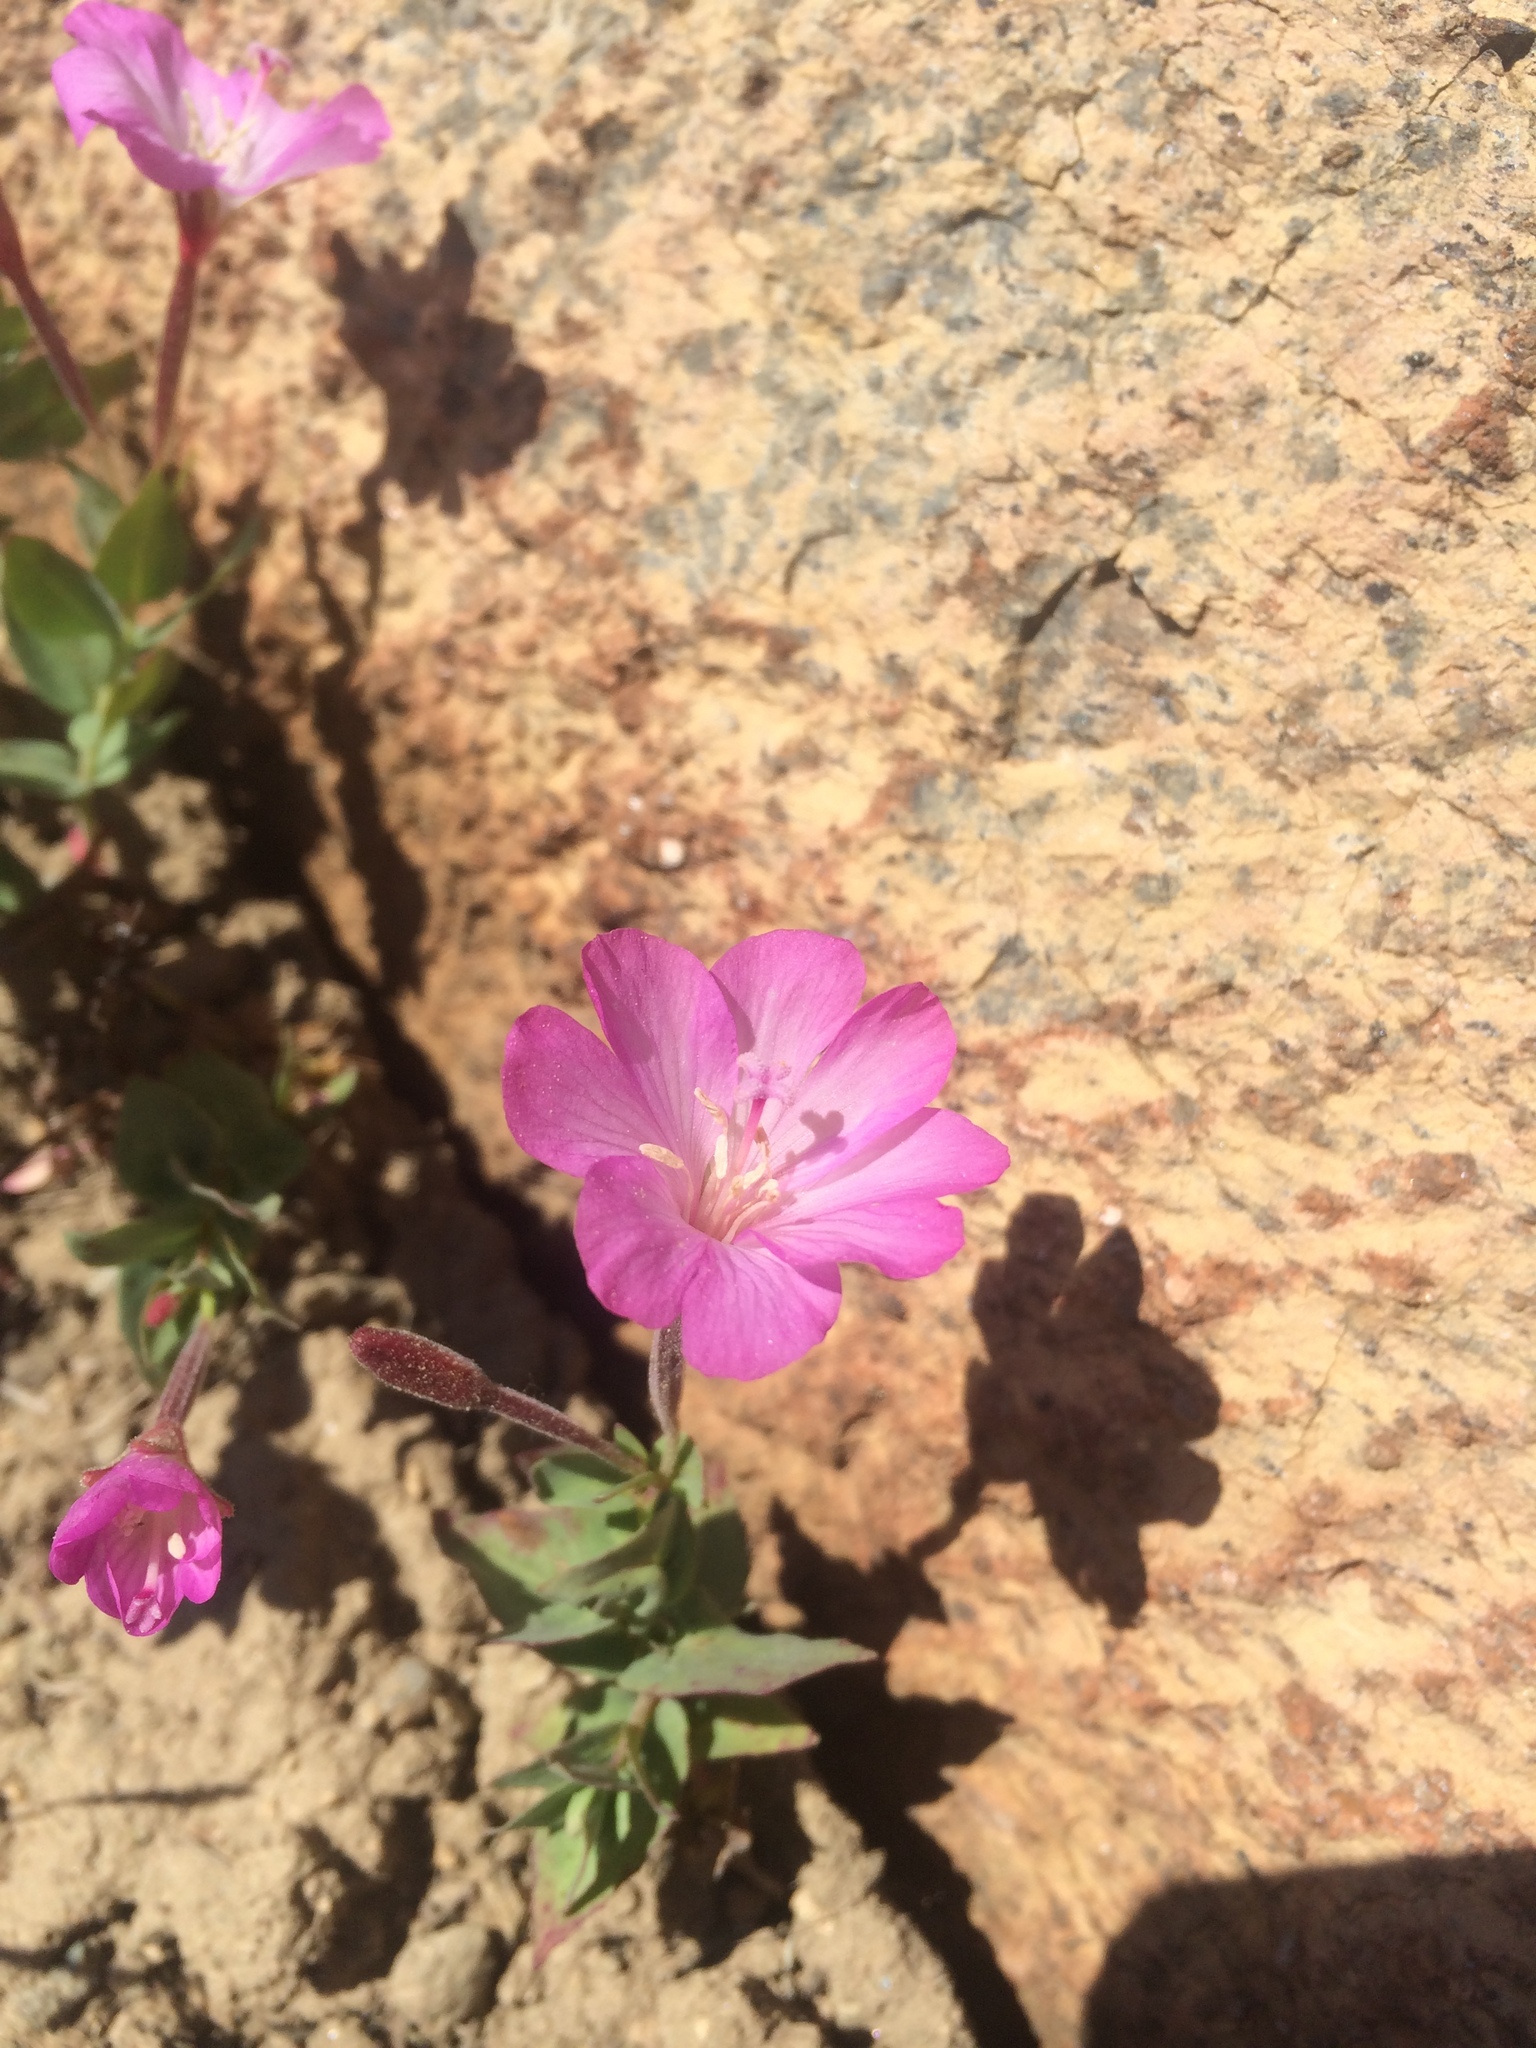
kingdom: Plantae
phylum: Tracheophyta
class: Magnoliopsida
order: Myrtales
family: Onagraceae
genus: Epilobium
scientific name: Epilobium siskiyouense
